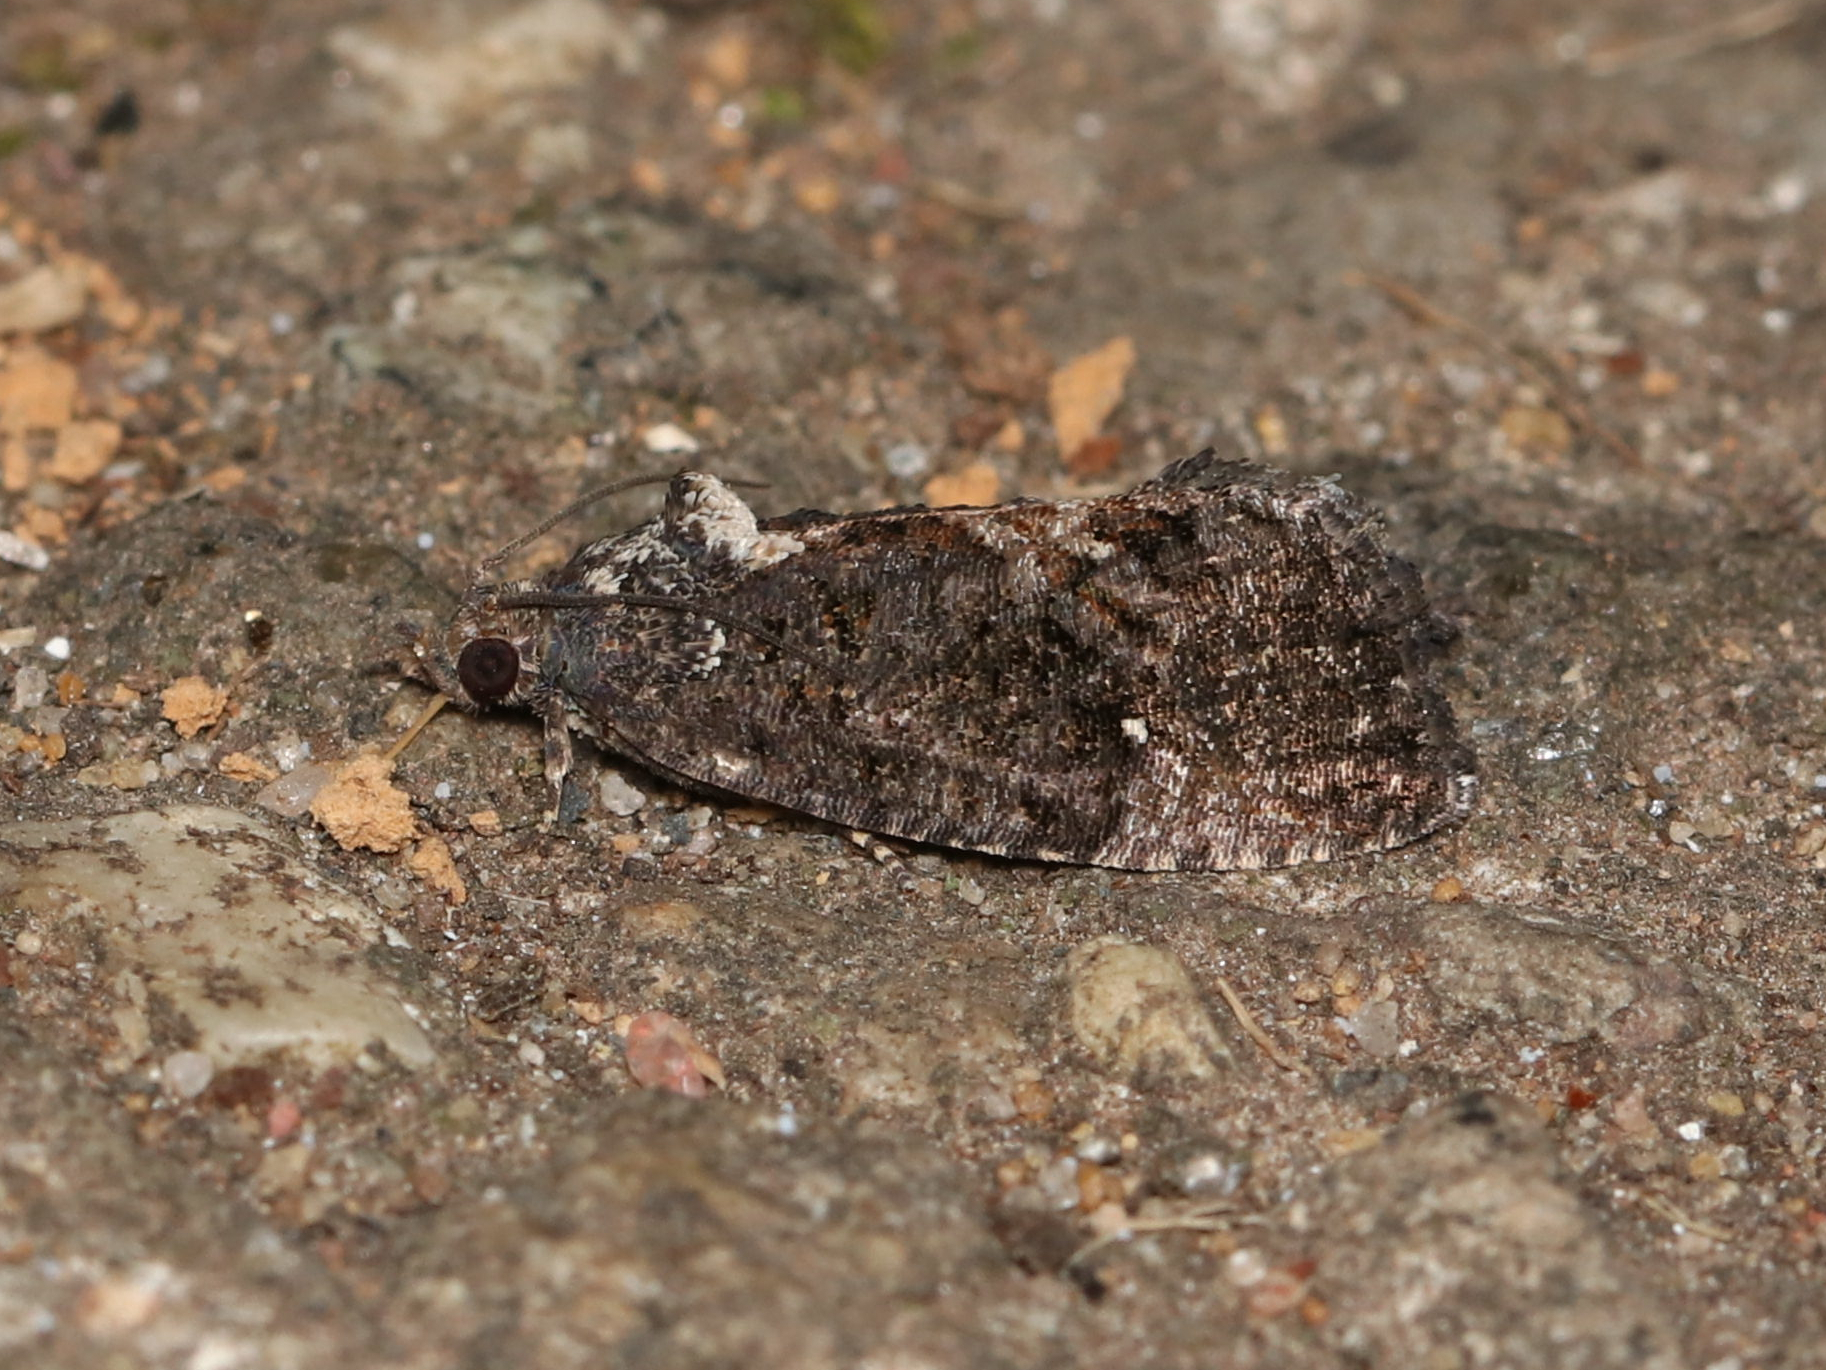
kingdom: Animalia
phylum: Arthropoda
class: Insecta
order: Lepidoptera
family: Tortricidae
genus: Gymnandrosoma
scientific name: Gymnandrosoma punctidiscanum
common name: Dotted ecdytolopha moth
